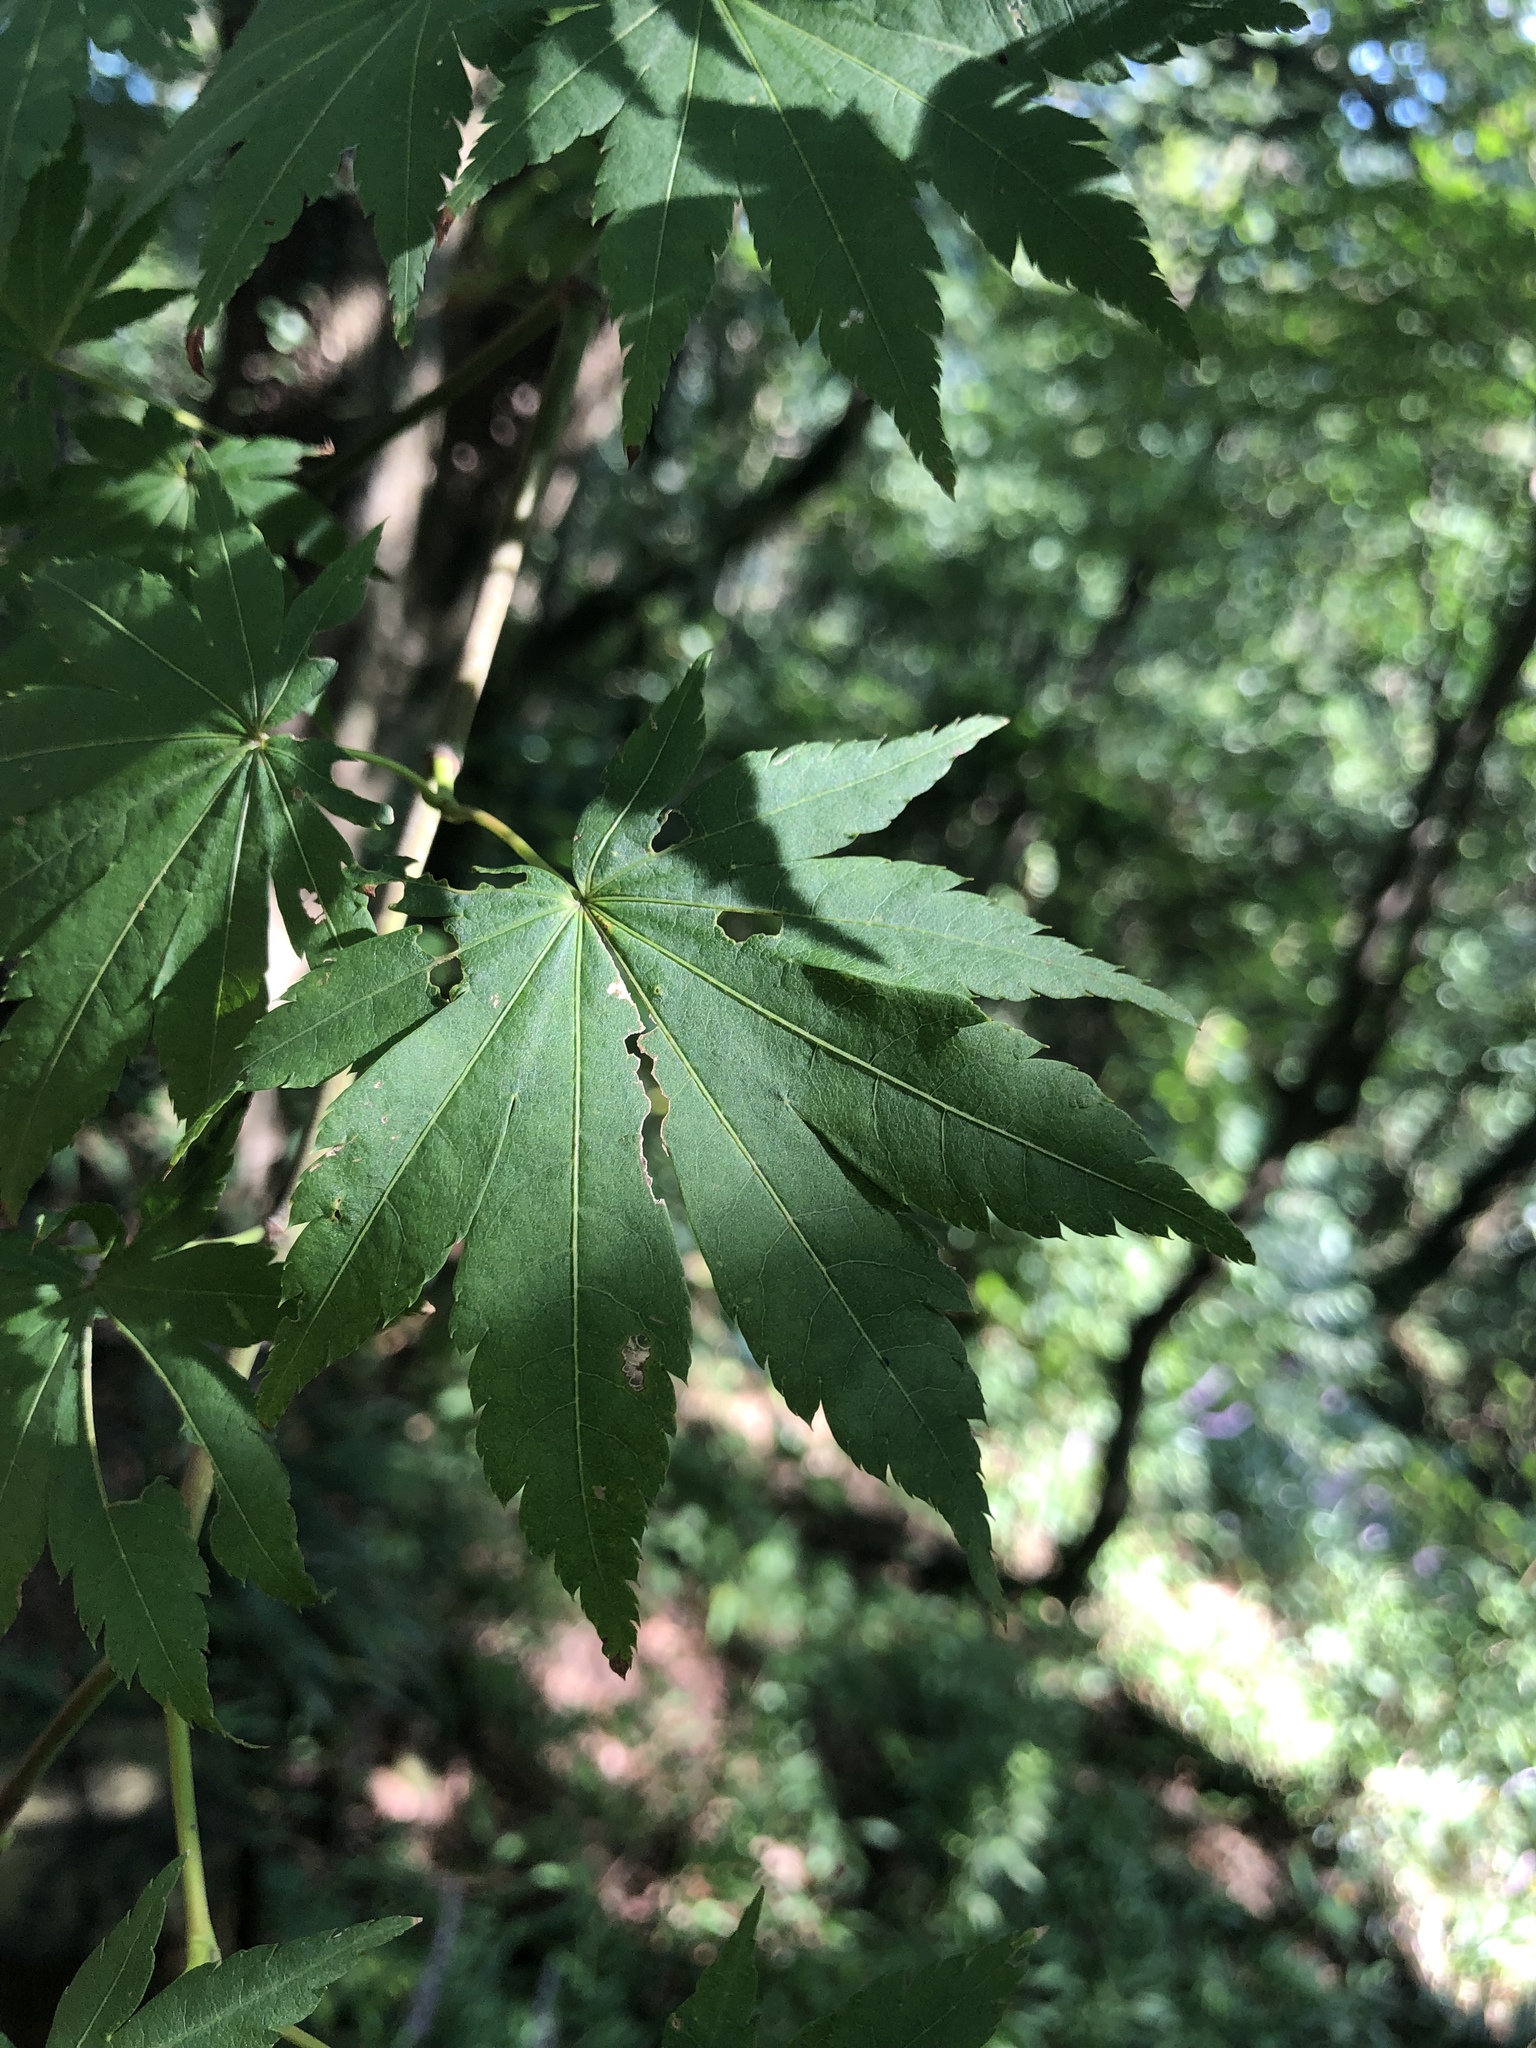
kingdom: Plantae
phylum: Tracheophyta
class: Magnoliopsida
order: Sapindales
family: Sapindaceae
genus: Acer
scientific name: Acer palmatum
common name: Japanese maple
